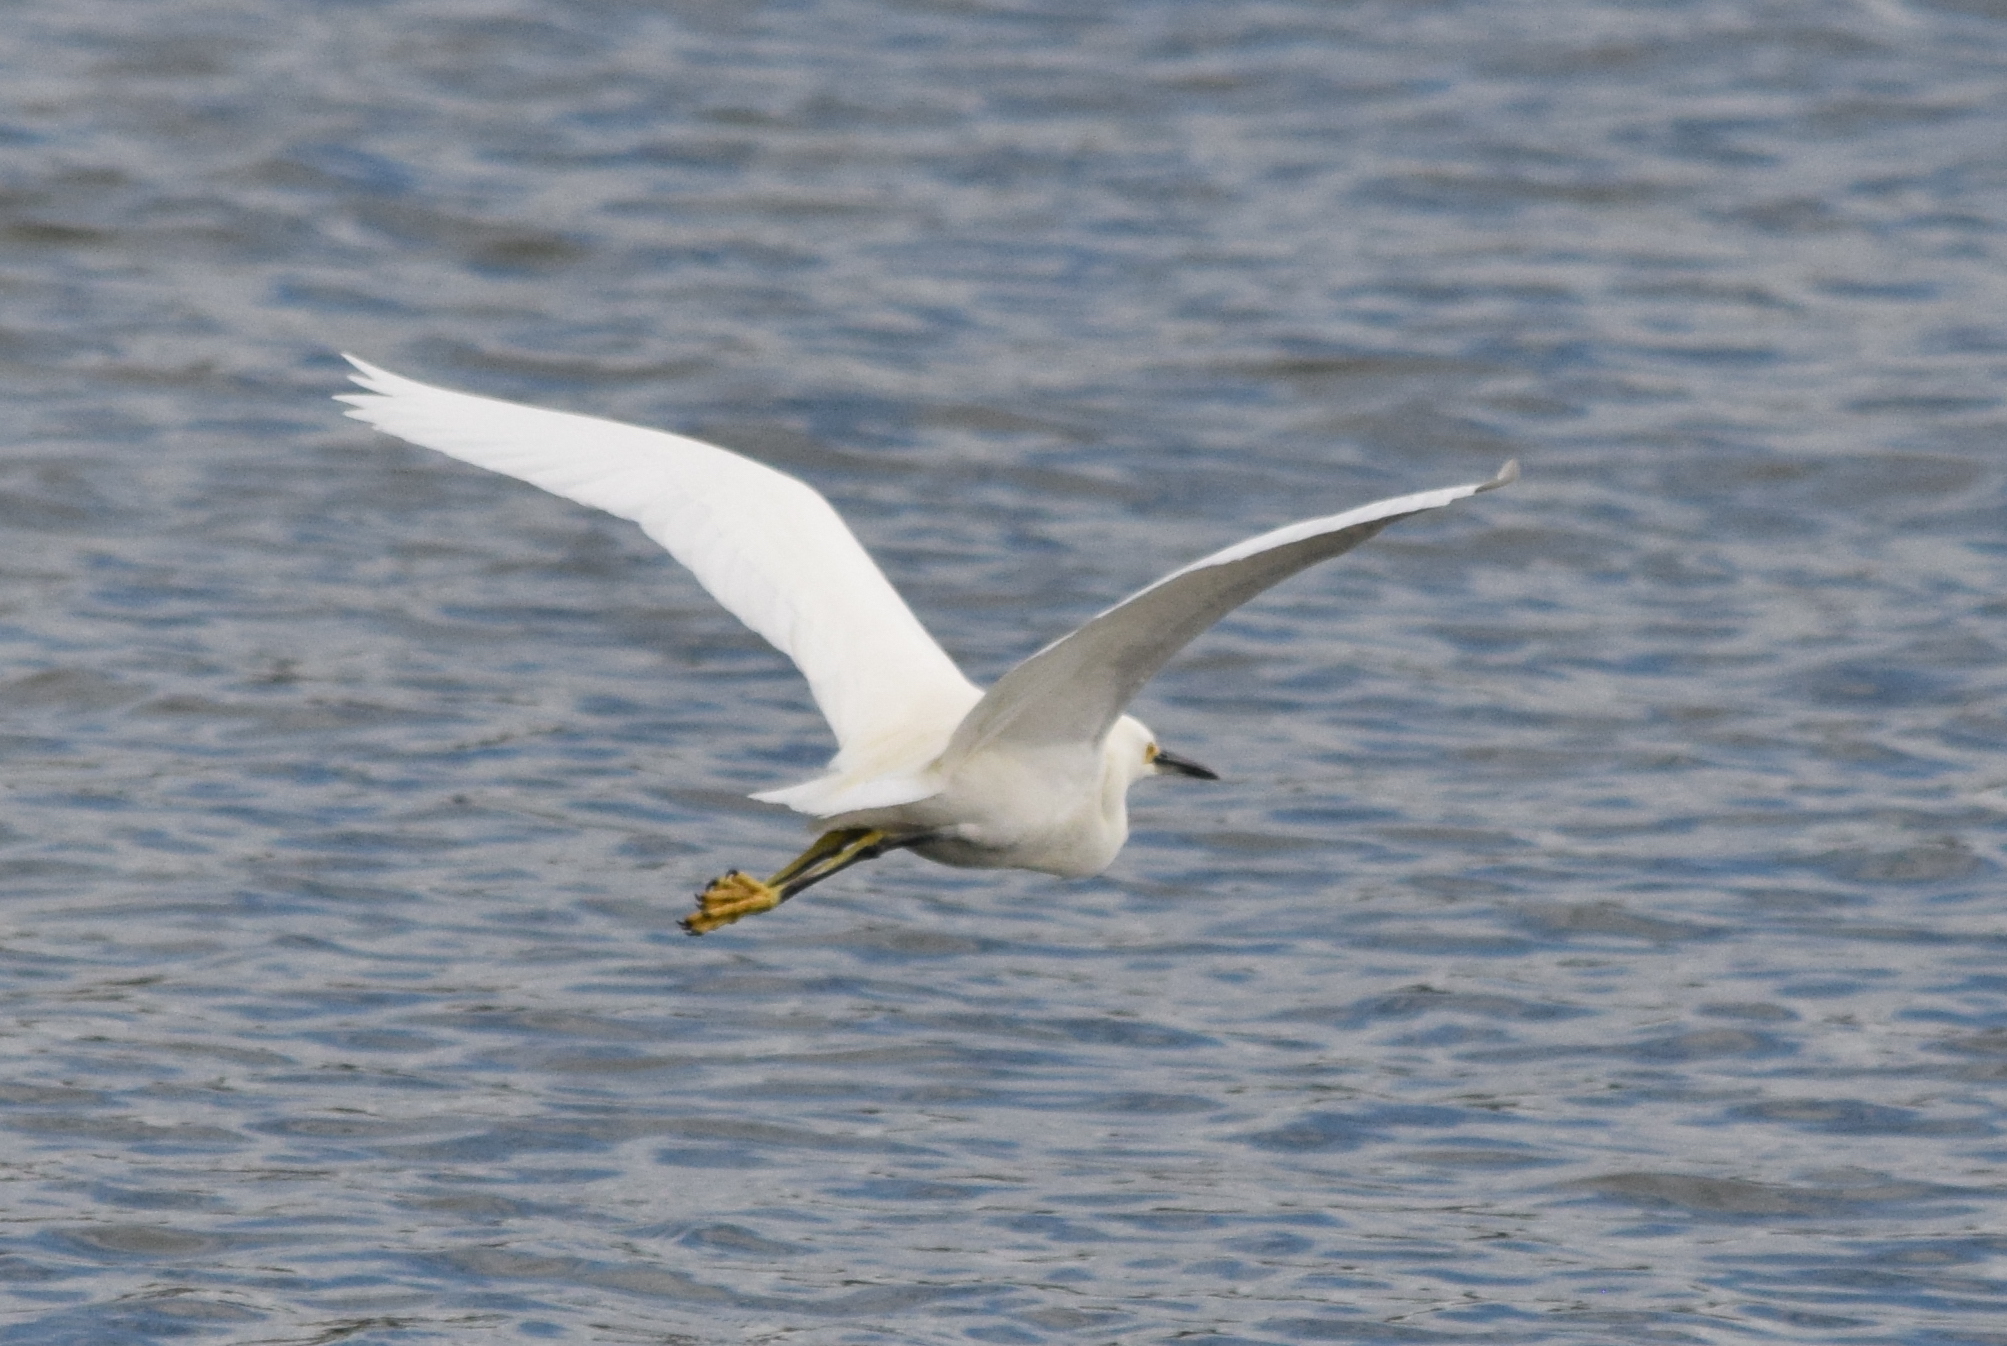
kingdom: Animalia
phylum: Chordata
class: Aves
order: Pelecaniformes
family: Ardeidae
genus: Egretta
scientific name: Egretta thula
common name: Snowy egret
